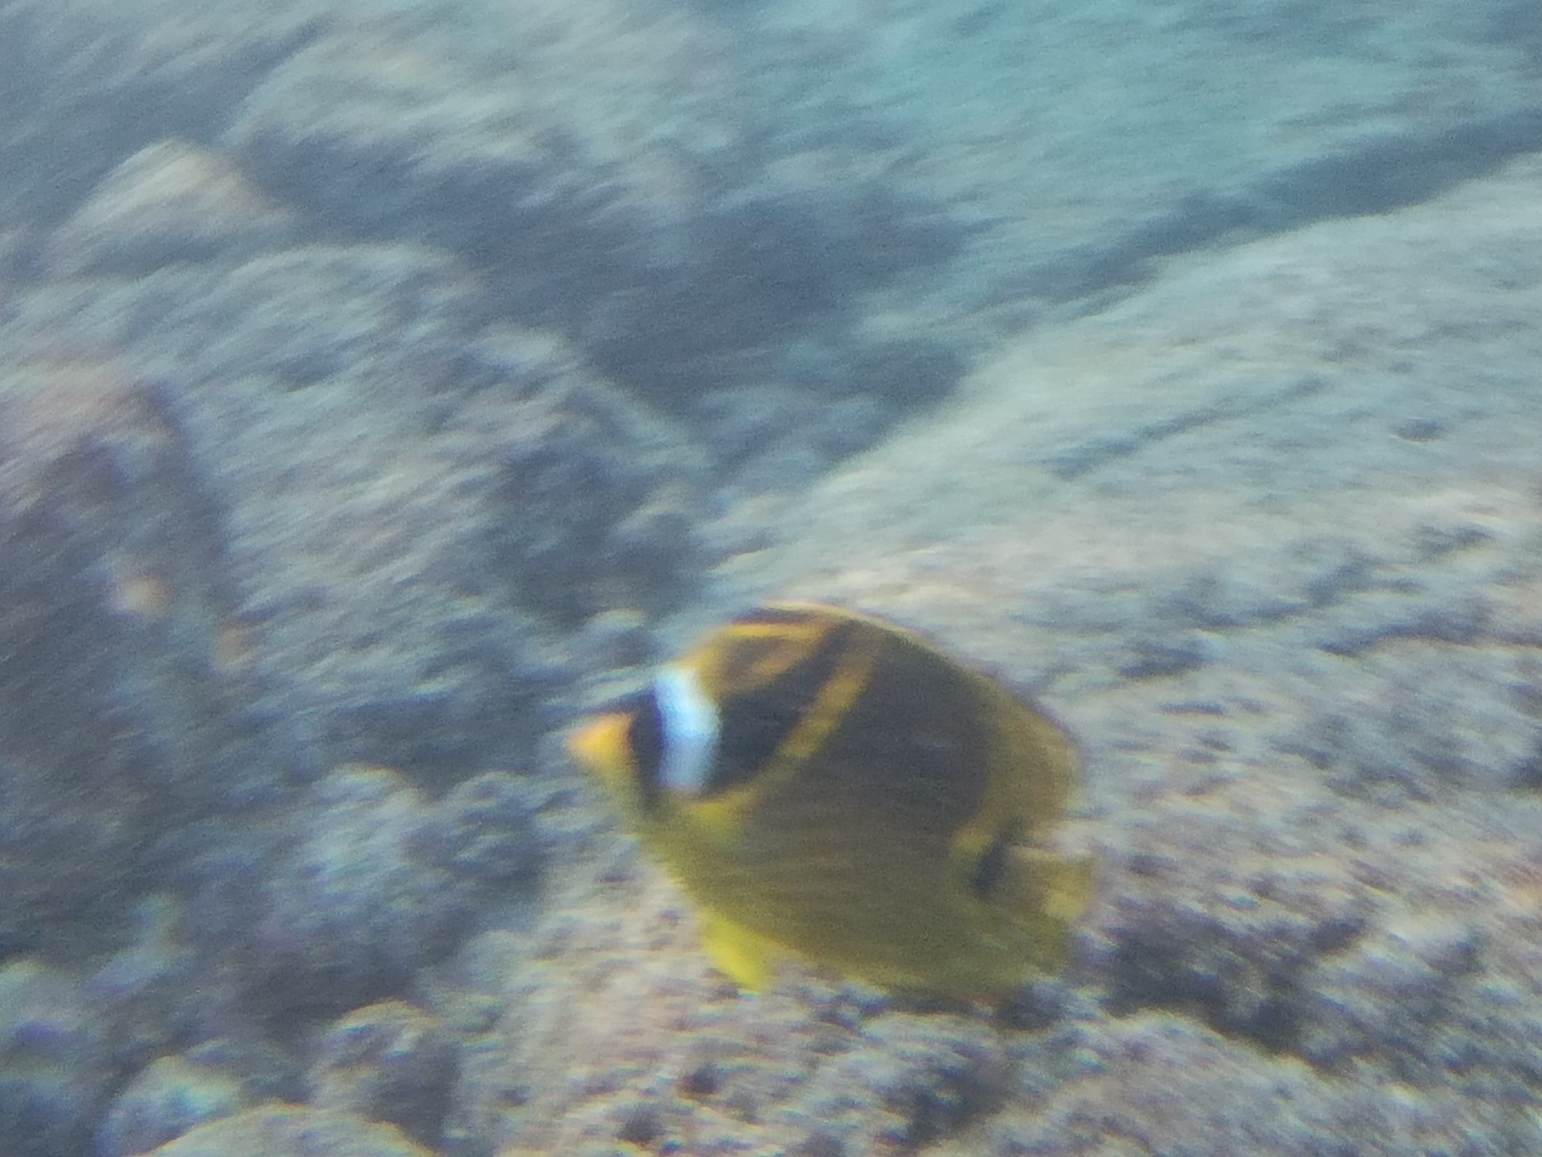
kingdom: Animalia
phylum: Chordata
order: Perciformes
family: Chaetodontidae
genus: Chaetodon
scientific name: Chaetodon lunula
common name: Raccoon butterflyfish
